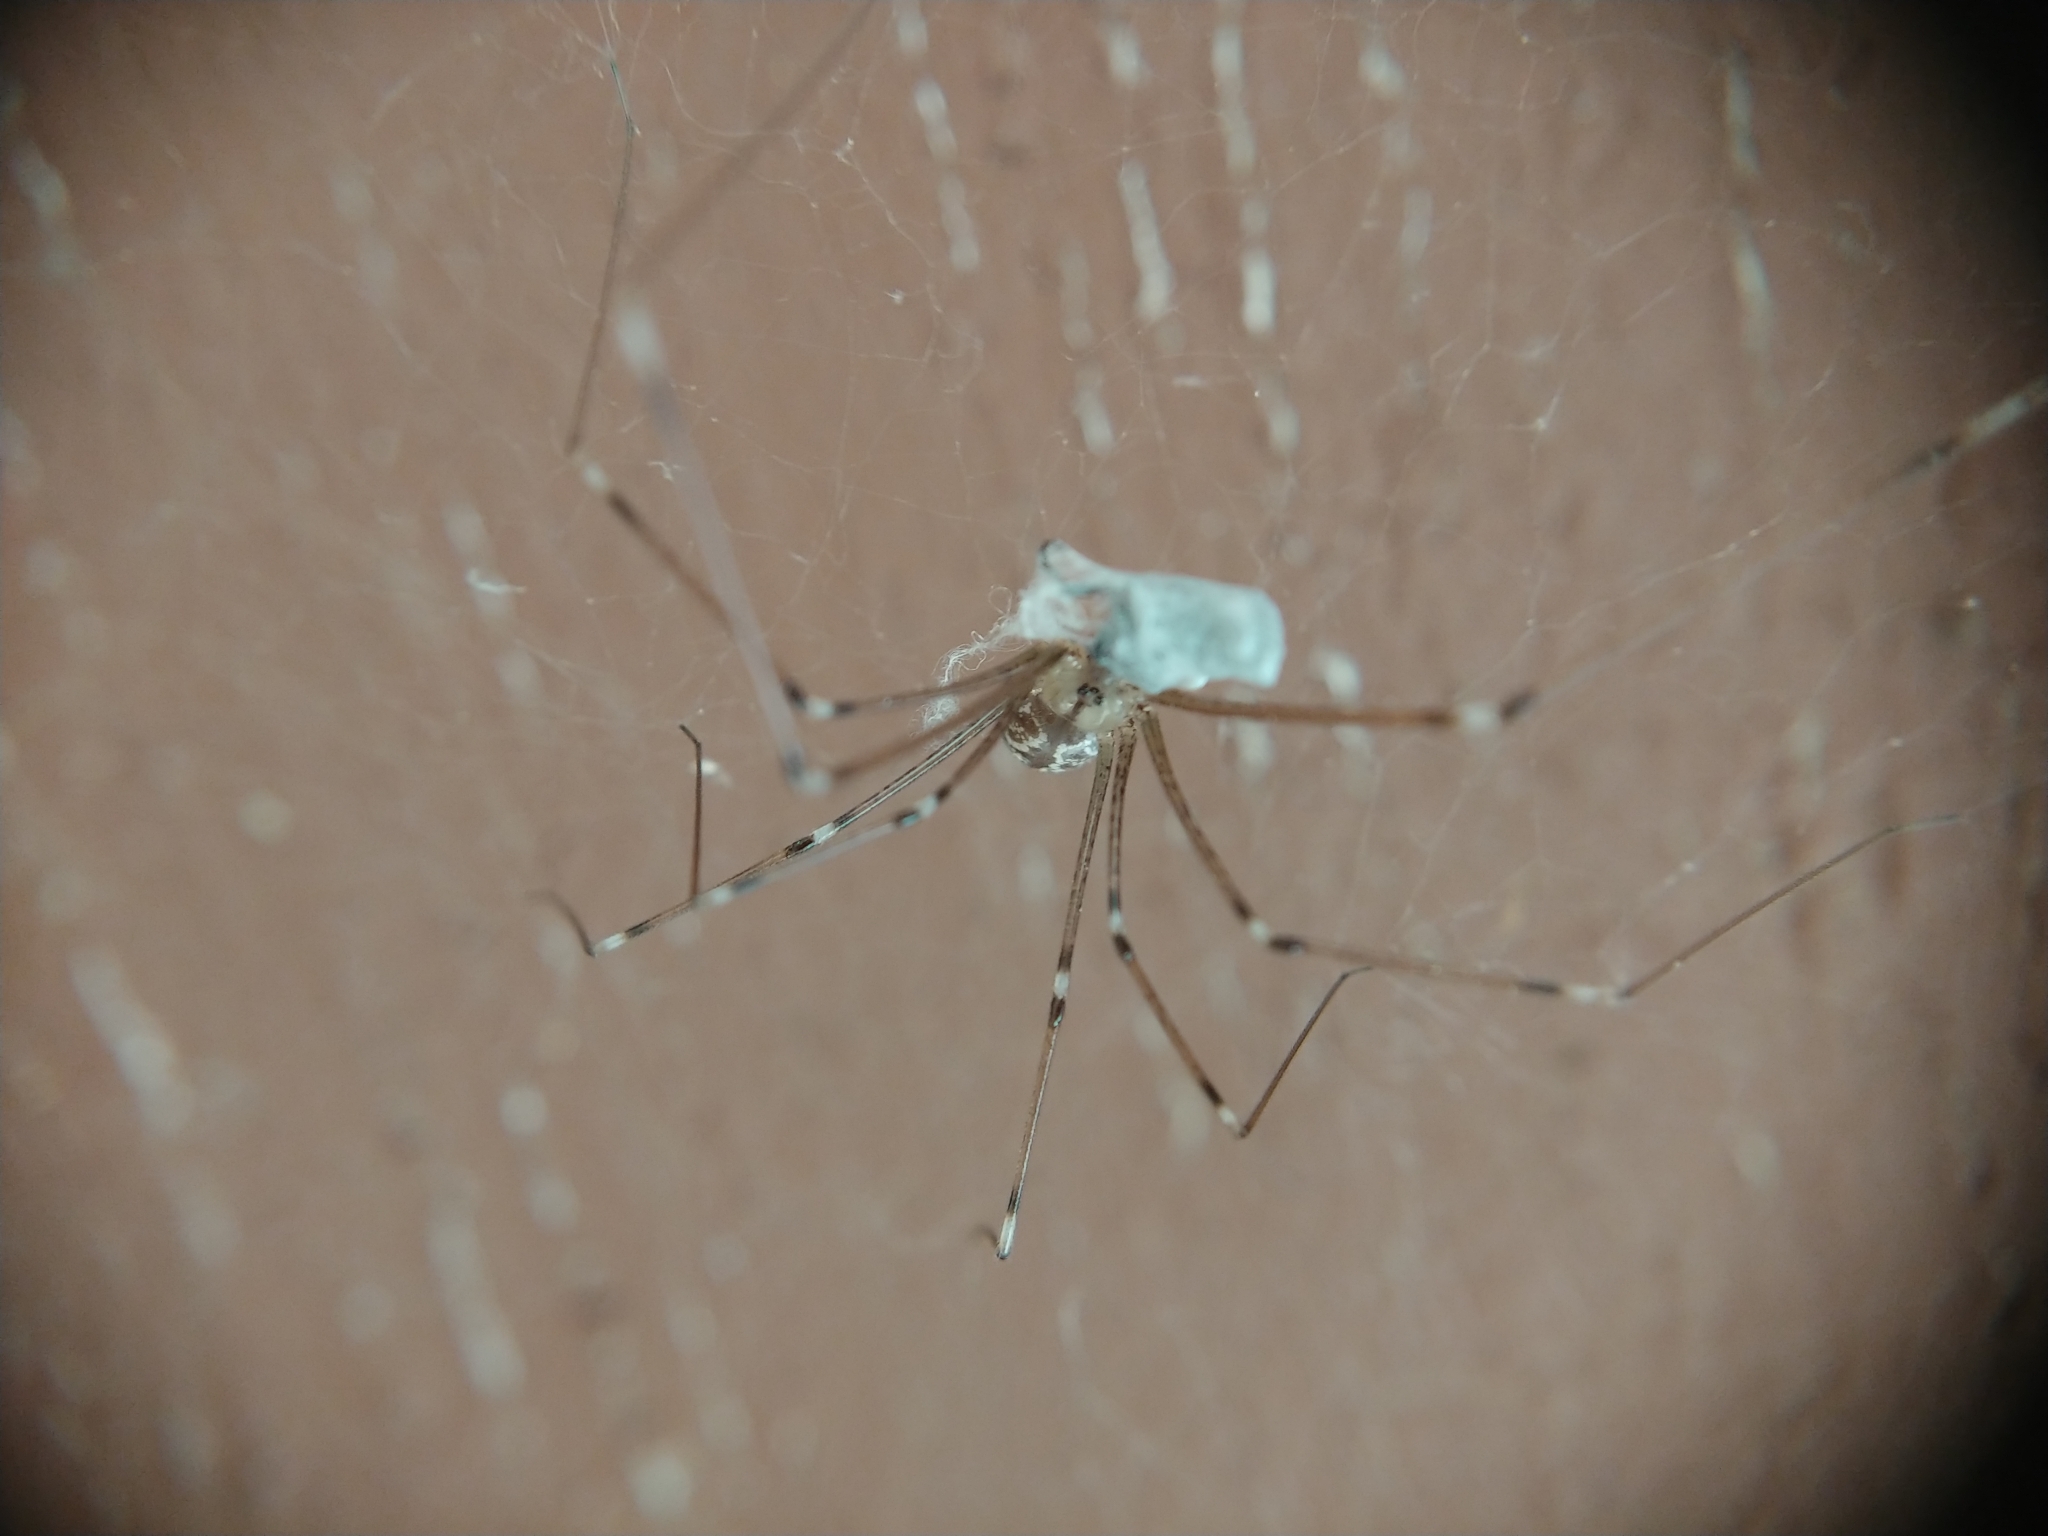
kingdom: Animalia
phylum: Arthropoda
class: Arachnida
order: Araneae
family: Pholcidae
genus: Holocnemus
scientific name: Holocnemus pluchei
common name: Marbled cellar spider
